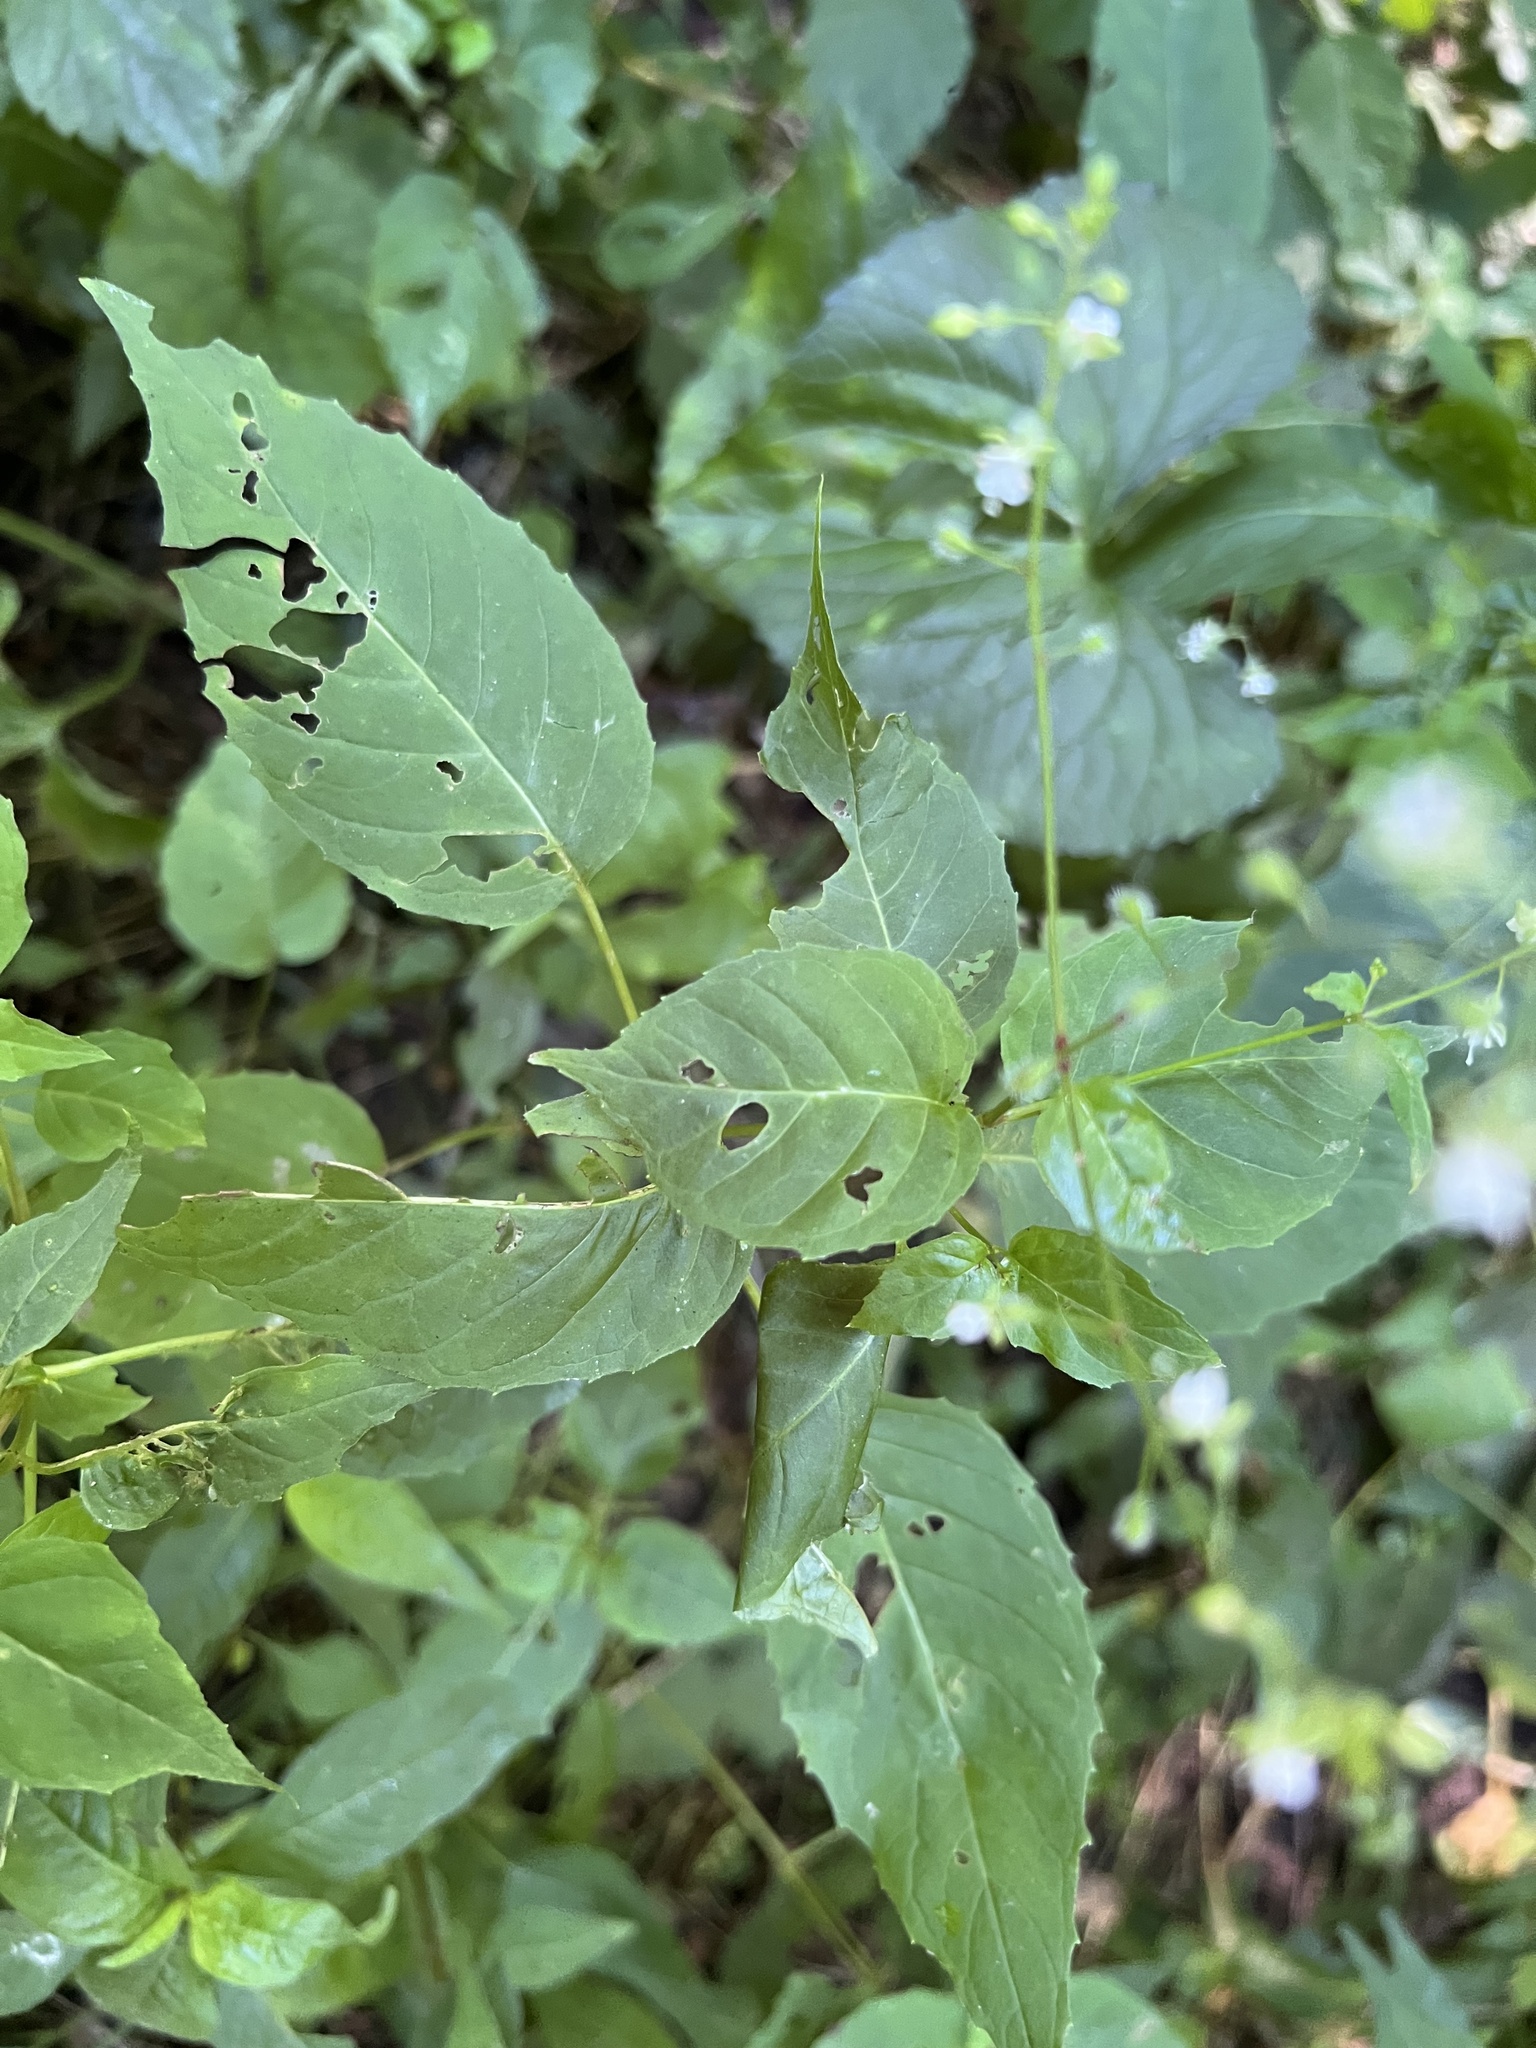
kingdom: Plantae
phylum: Tracheophyta
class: Magnoliopsida
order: Myrtales
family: Onagraceae
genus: Circaea
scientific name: Circaea canadensis
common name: Broad-leaved enchanter's nightshade
